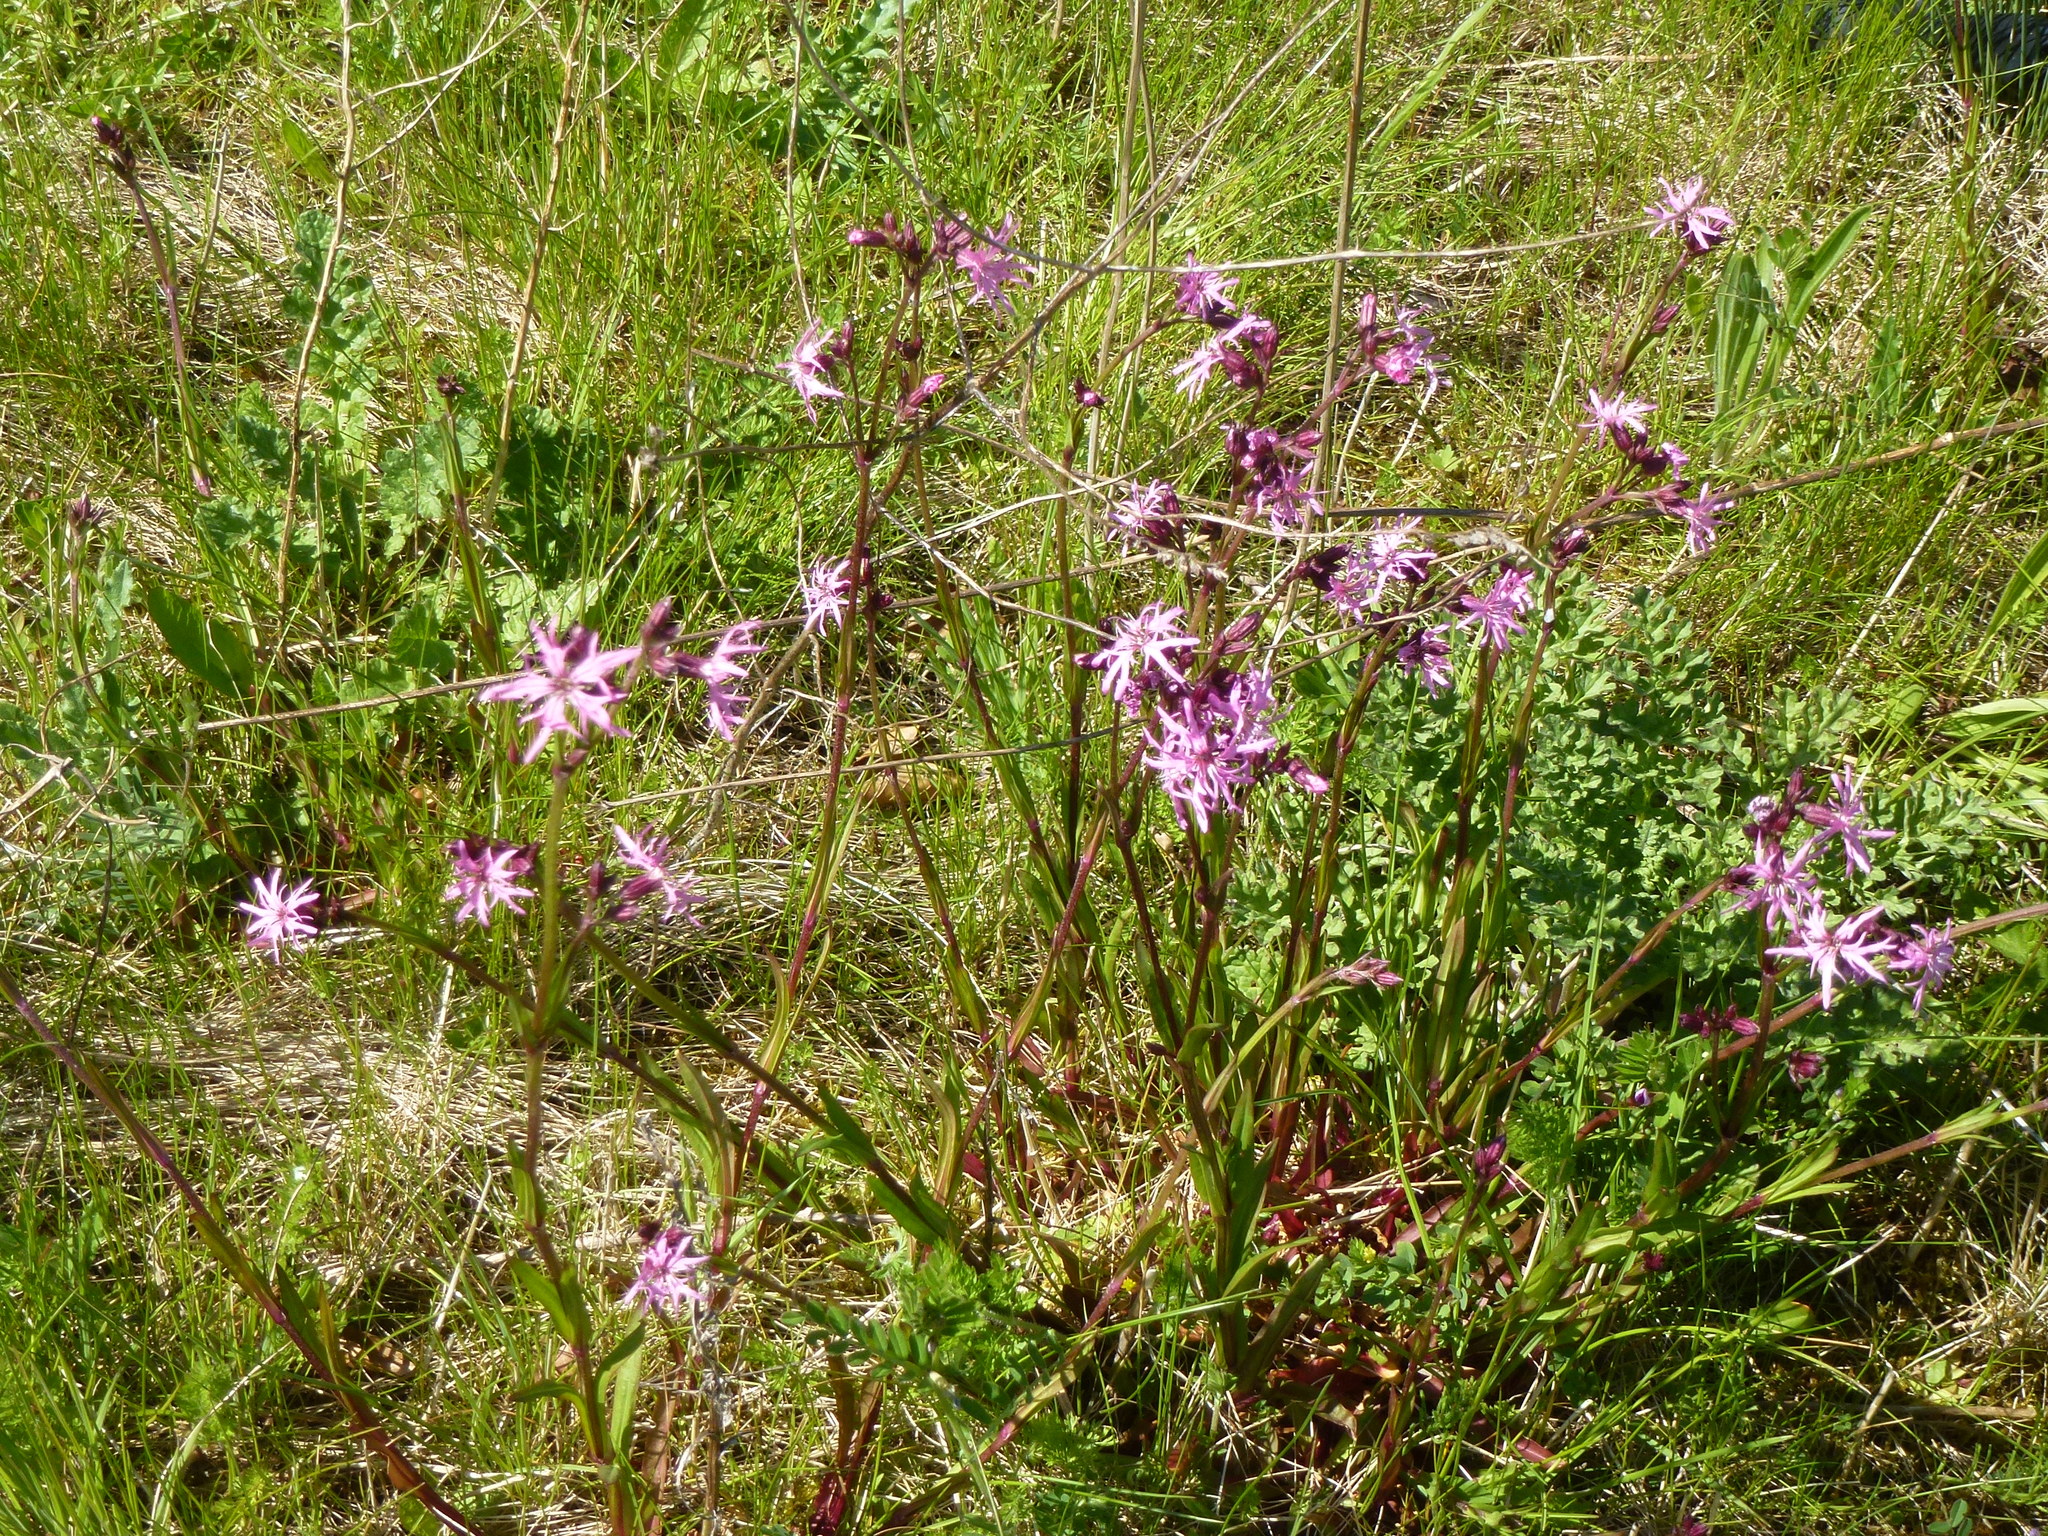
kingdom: Plantae
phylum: Tracheophyta
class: Magnoliopsida
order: Caryophyllales
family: Caryophyllaceae
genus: Silene
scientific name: Silene flos-cuculi
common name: Ragged-robin
